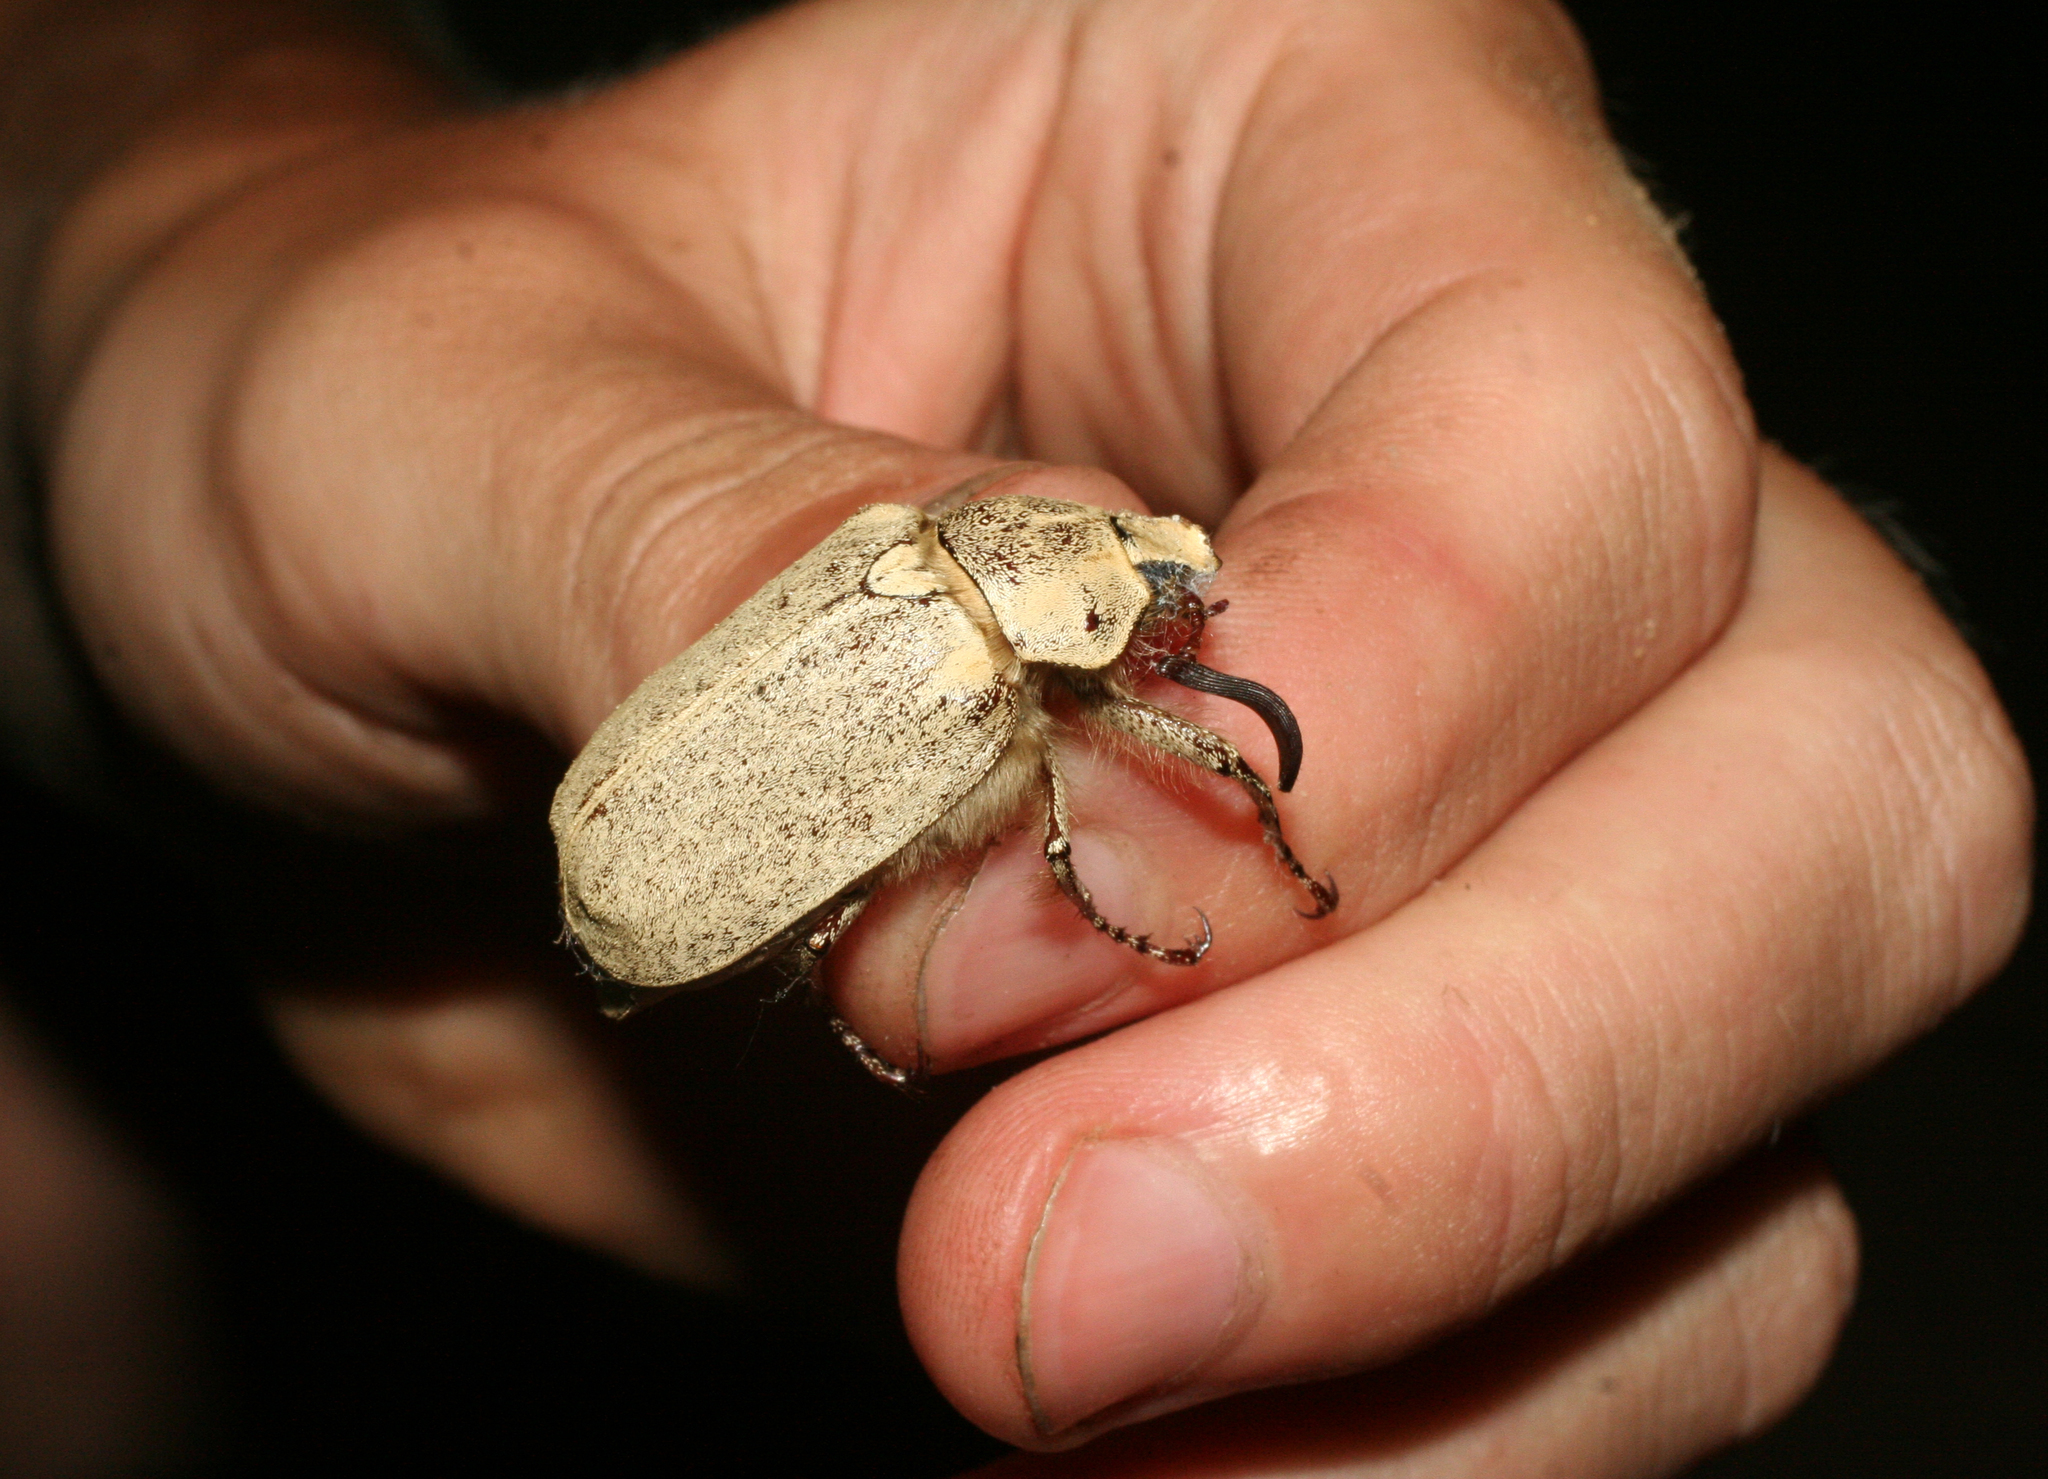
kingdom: Animalia
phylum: Arthropoda
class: Insecta
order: Coleoptera
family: Scarabaeidae
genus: Polyphylla
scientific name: Polyphylla alba
